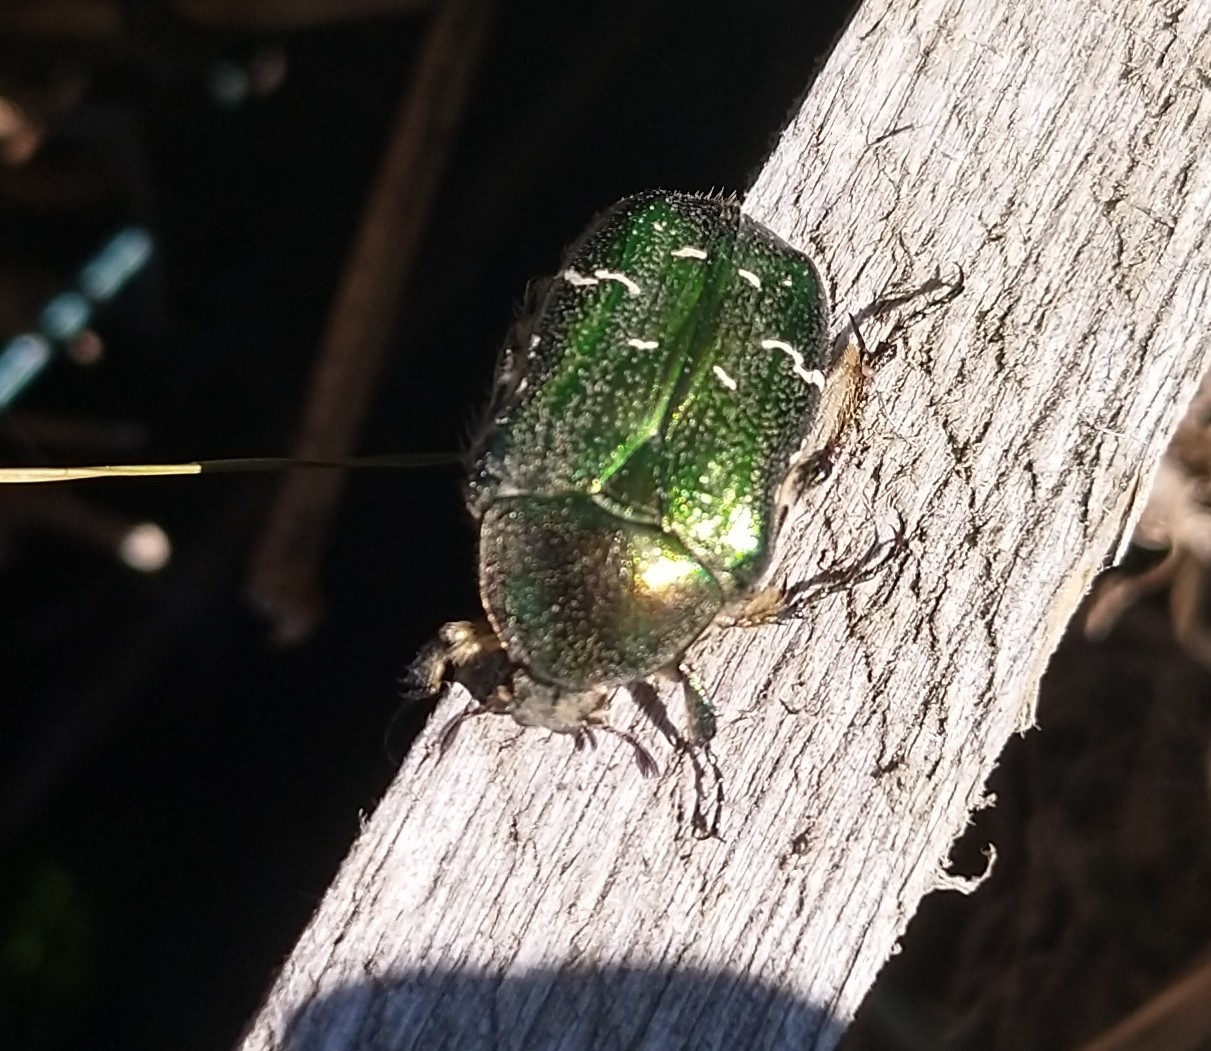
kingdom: Animalia
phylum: Arthropoda
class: Insecta
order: Coleoptera
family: Scarabaeidae
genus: Cetonia
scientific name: Cetonia aurata
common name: Rose chafer
